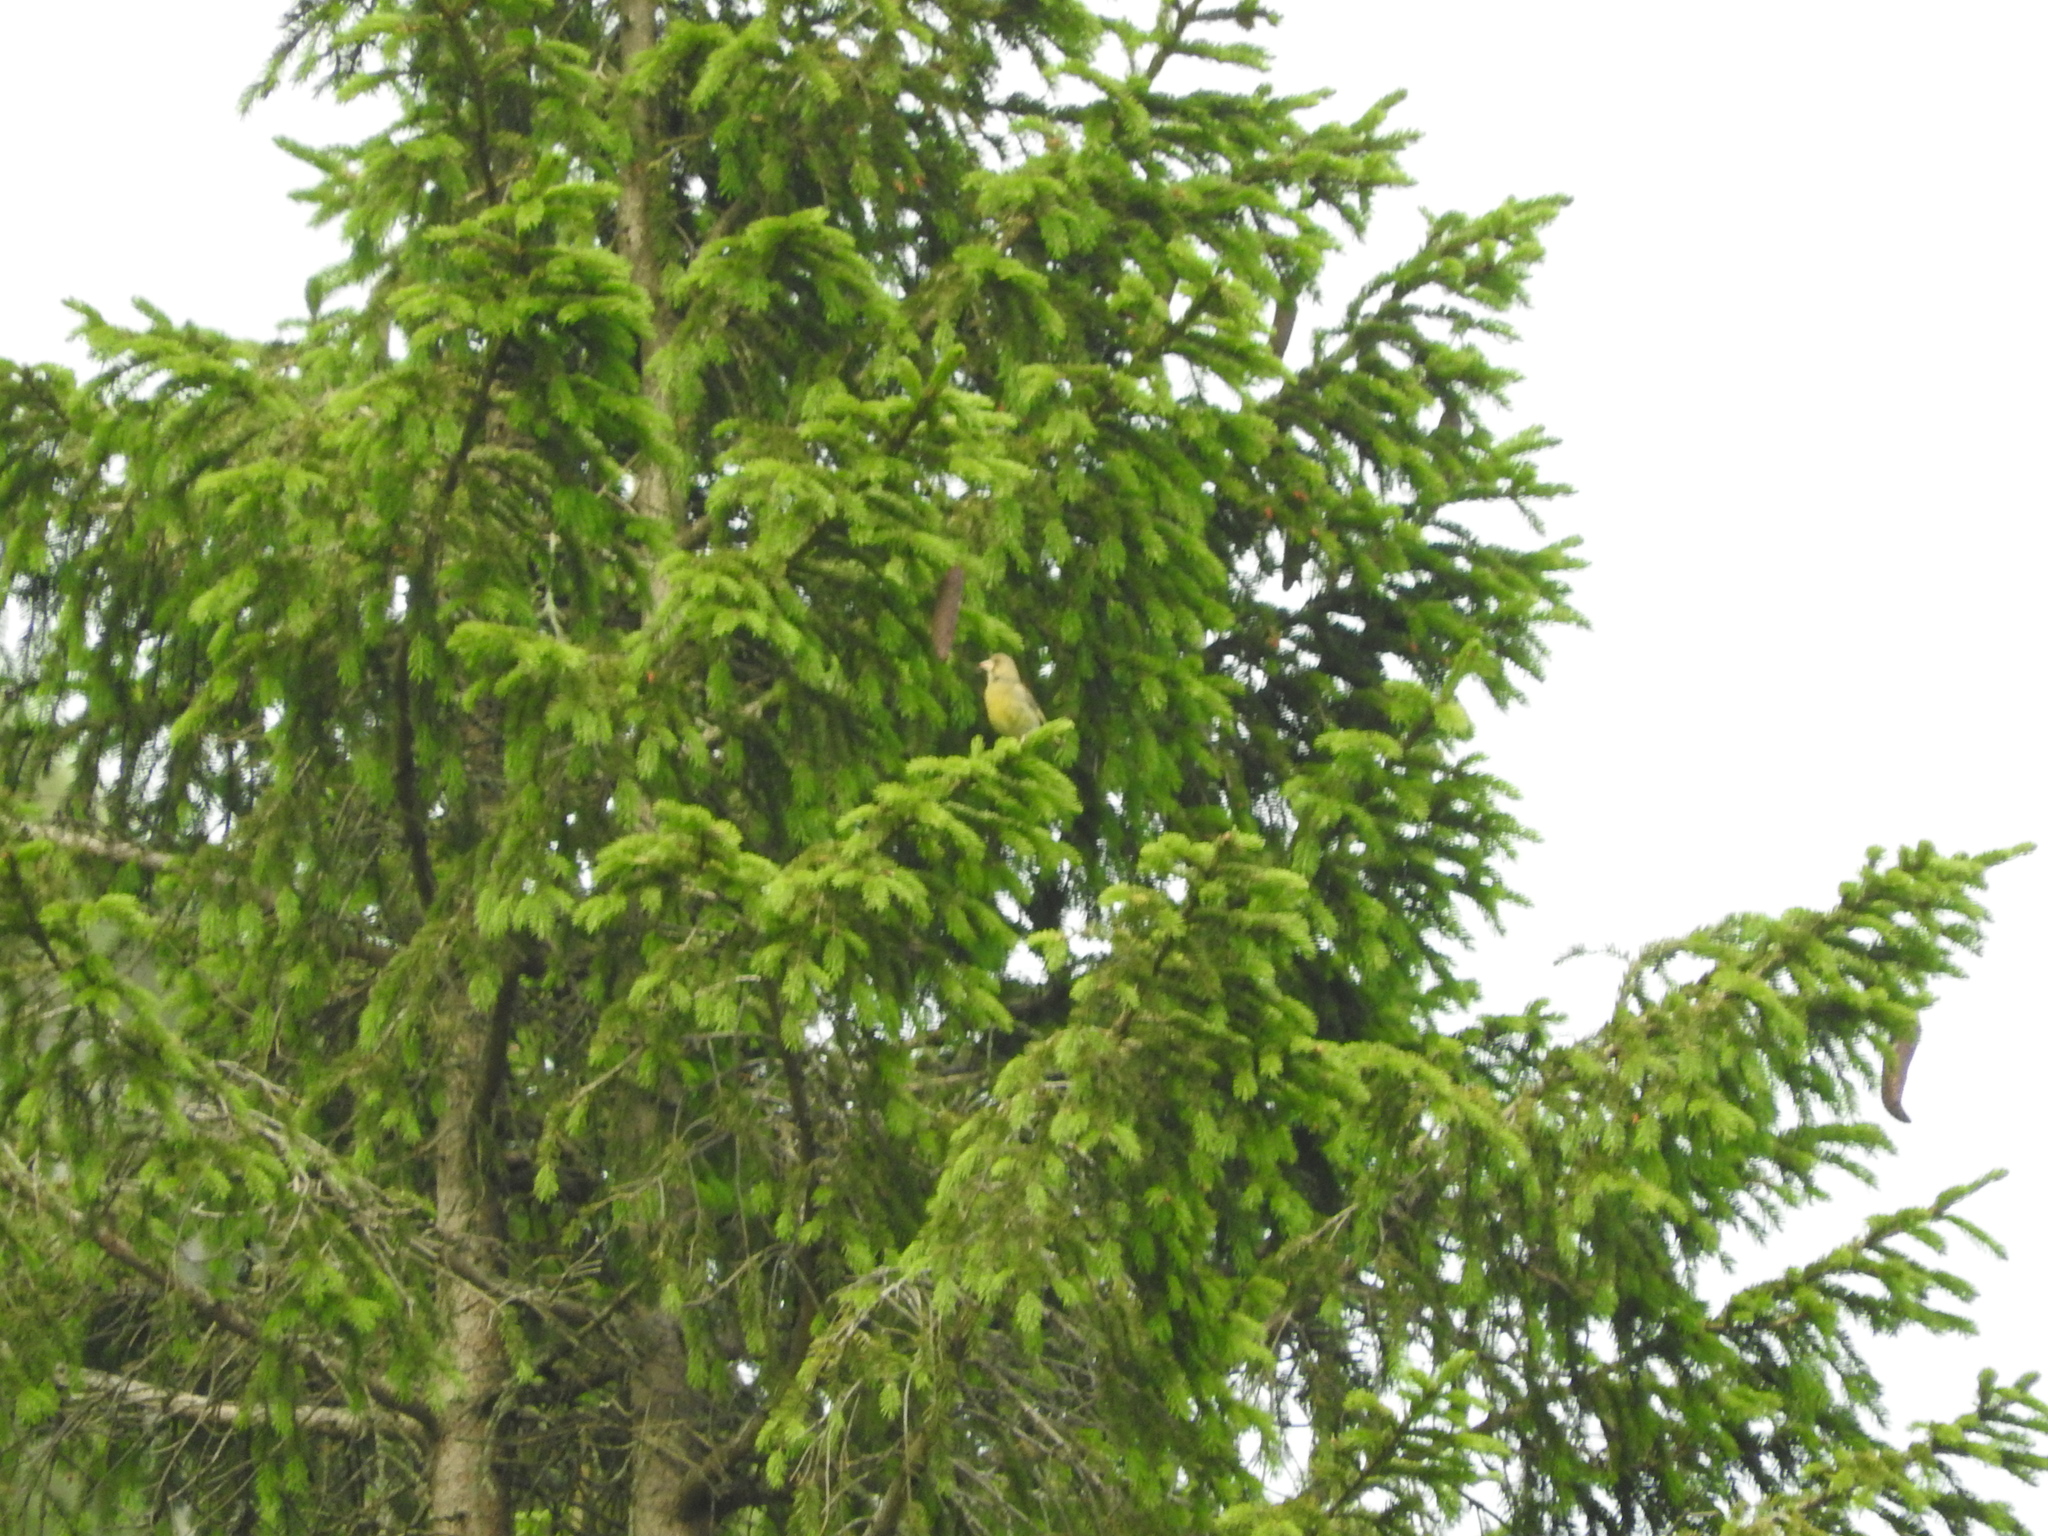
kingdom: Plantae
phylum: Tracheophyta
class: Liliopsida
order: Poales
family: Poaceae
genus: Chloris
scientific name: Chloris chloris
